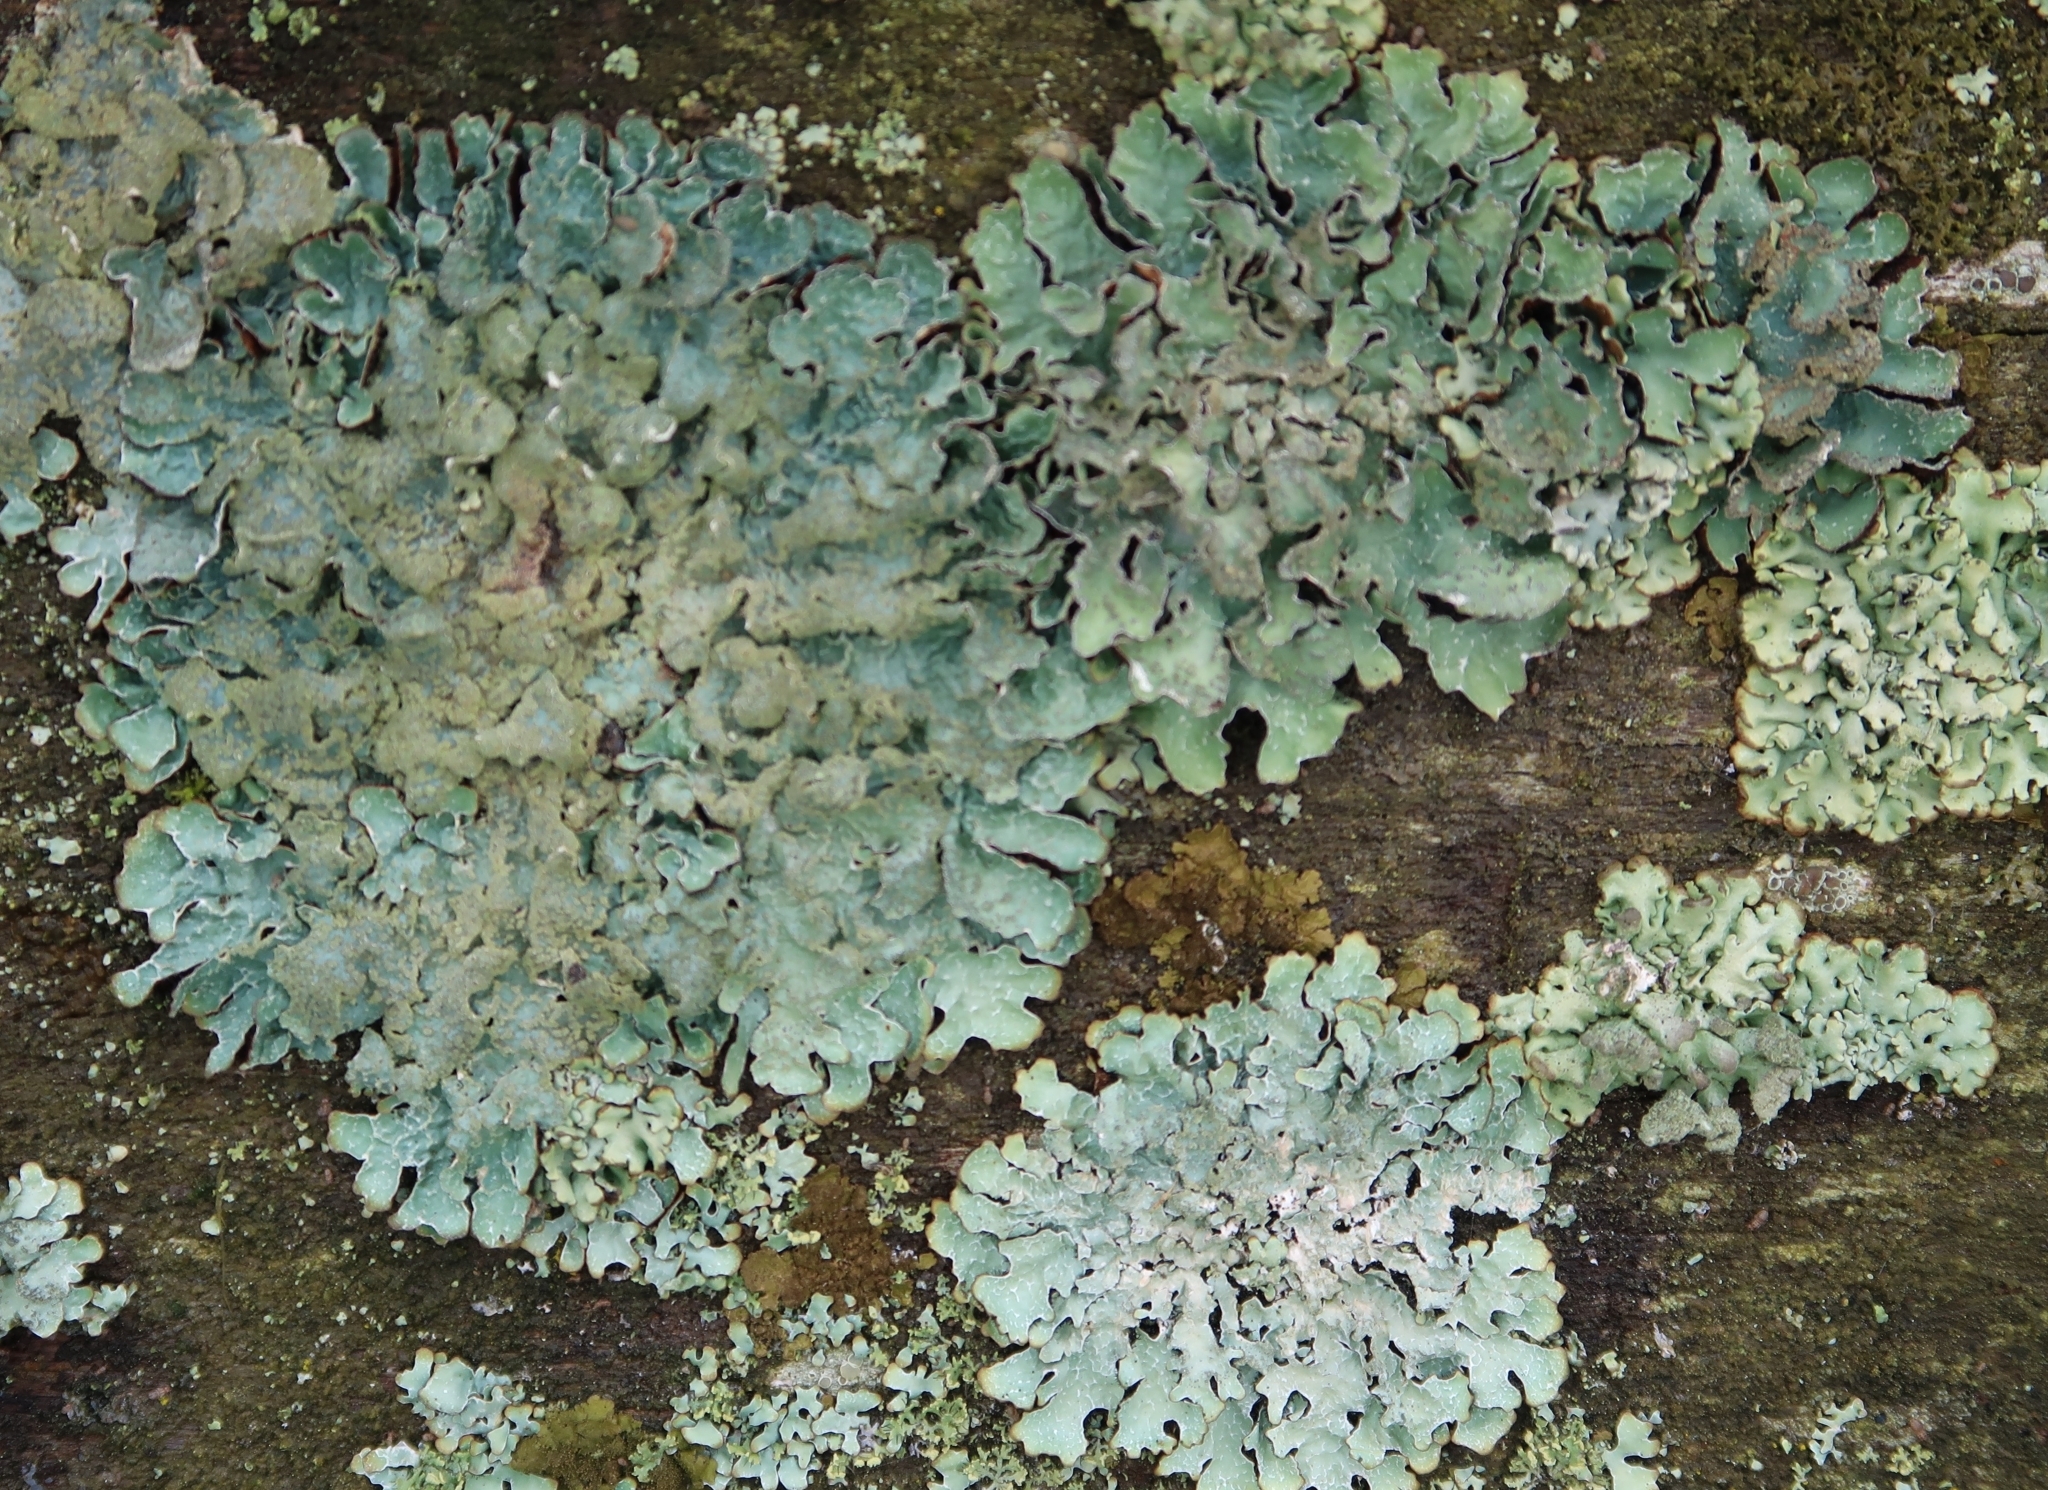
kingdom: Fungi
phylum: Ascomycota
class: Lecanoromycetes
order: Lecanorales
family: Parmeliaceae
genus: Parmelia
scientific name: Parmelia sulcata
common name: Netted shield lichen
